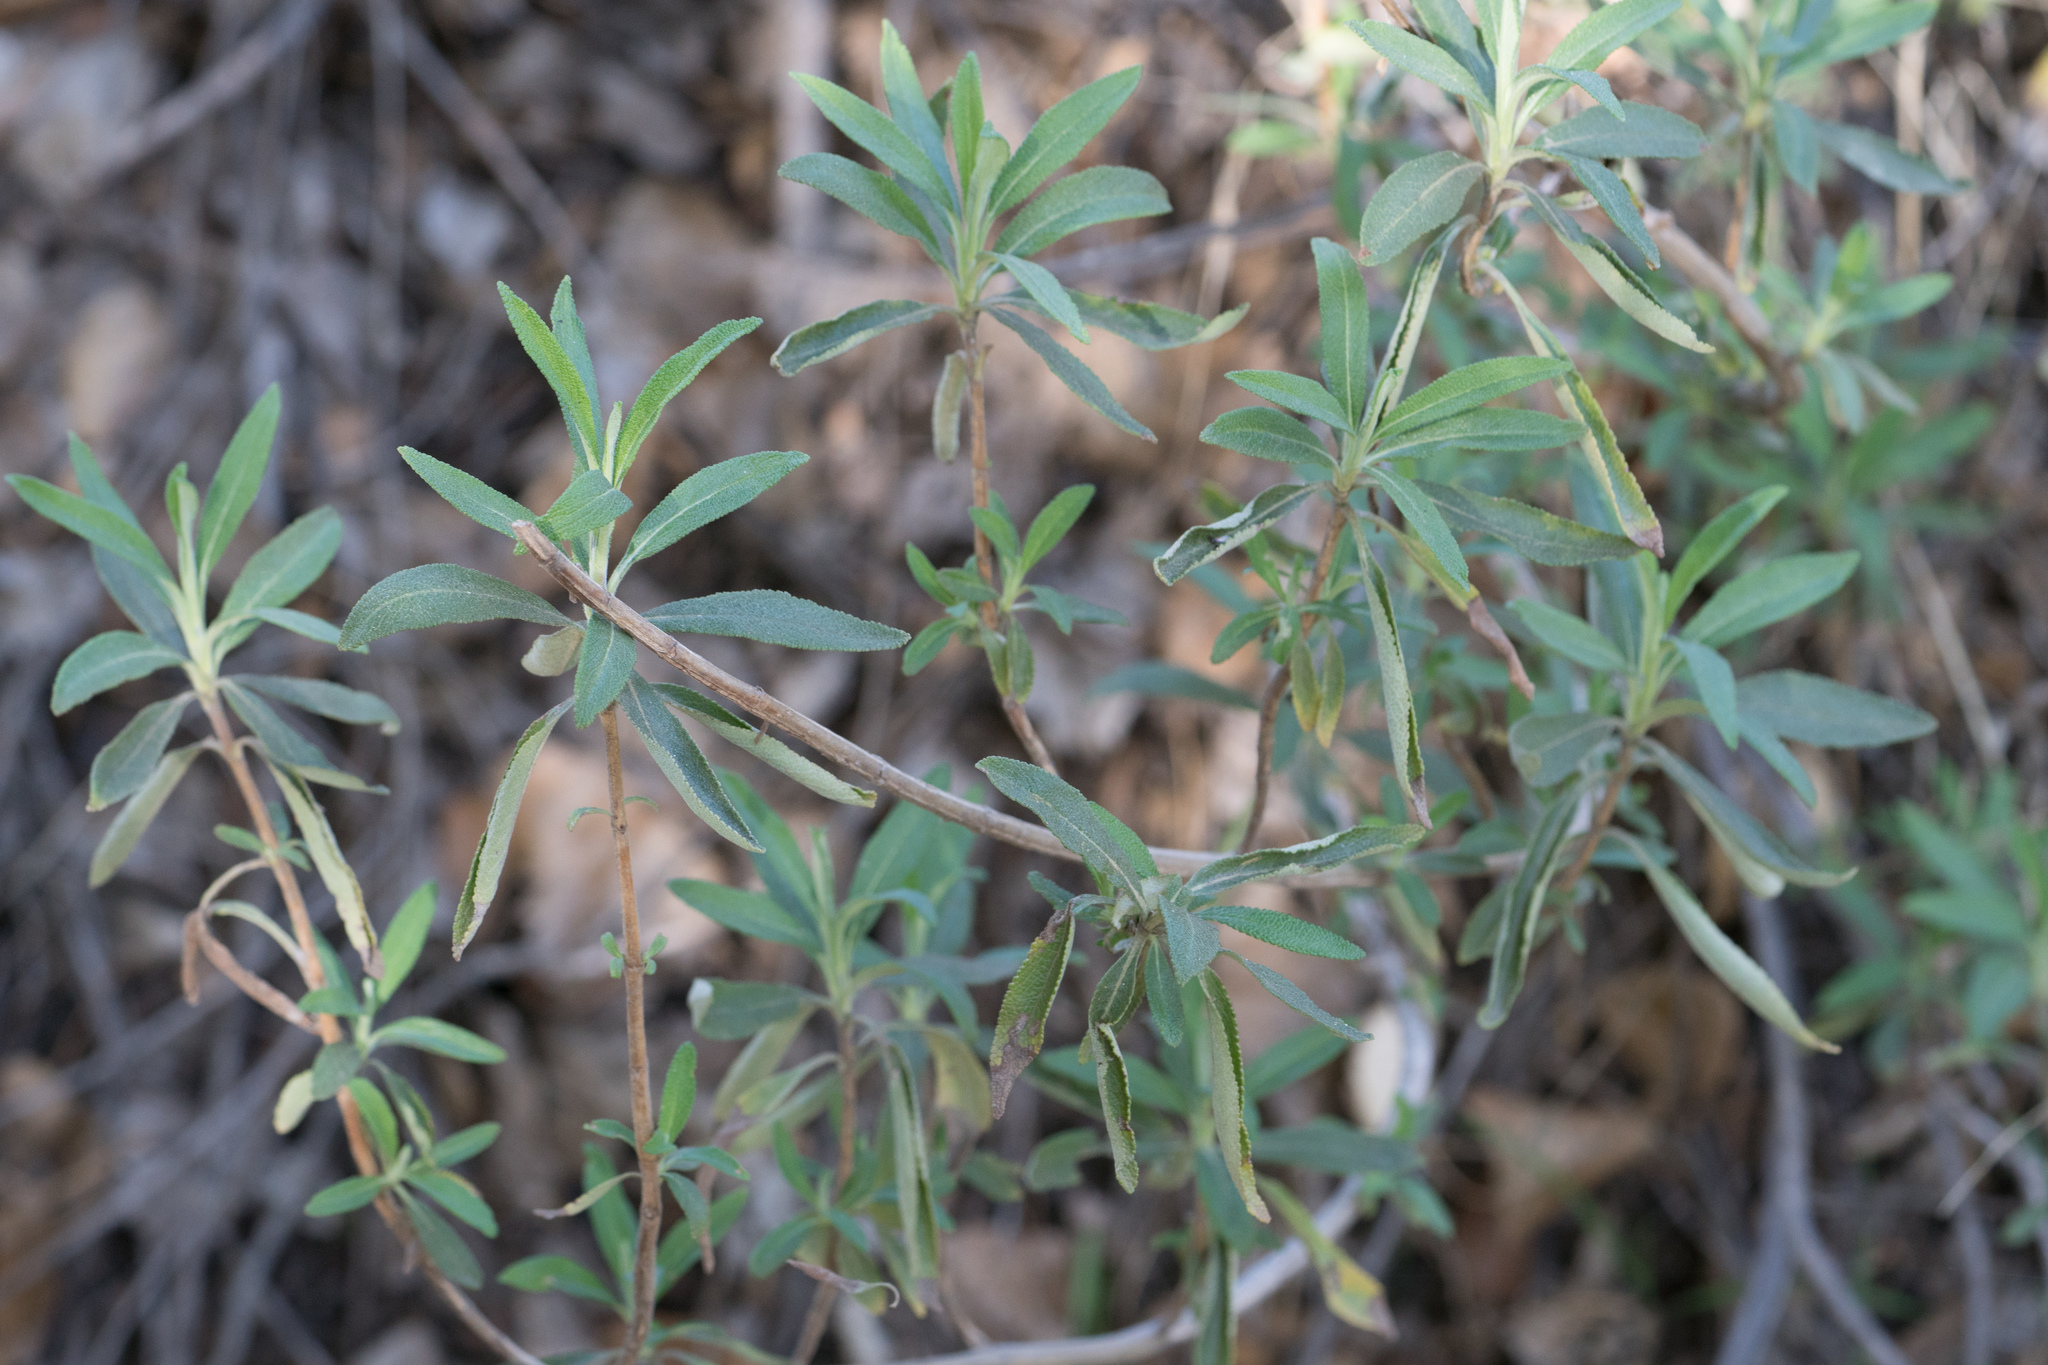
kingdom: Plantae
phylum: Tracheophyta
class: Magnoliopsida
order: Lamiales
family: Lamiaceae
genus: Salvia
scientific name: Salvia mellifera
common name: Black sage
